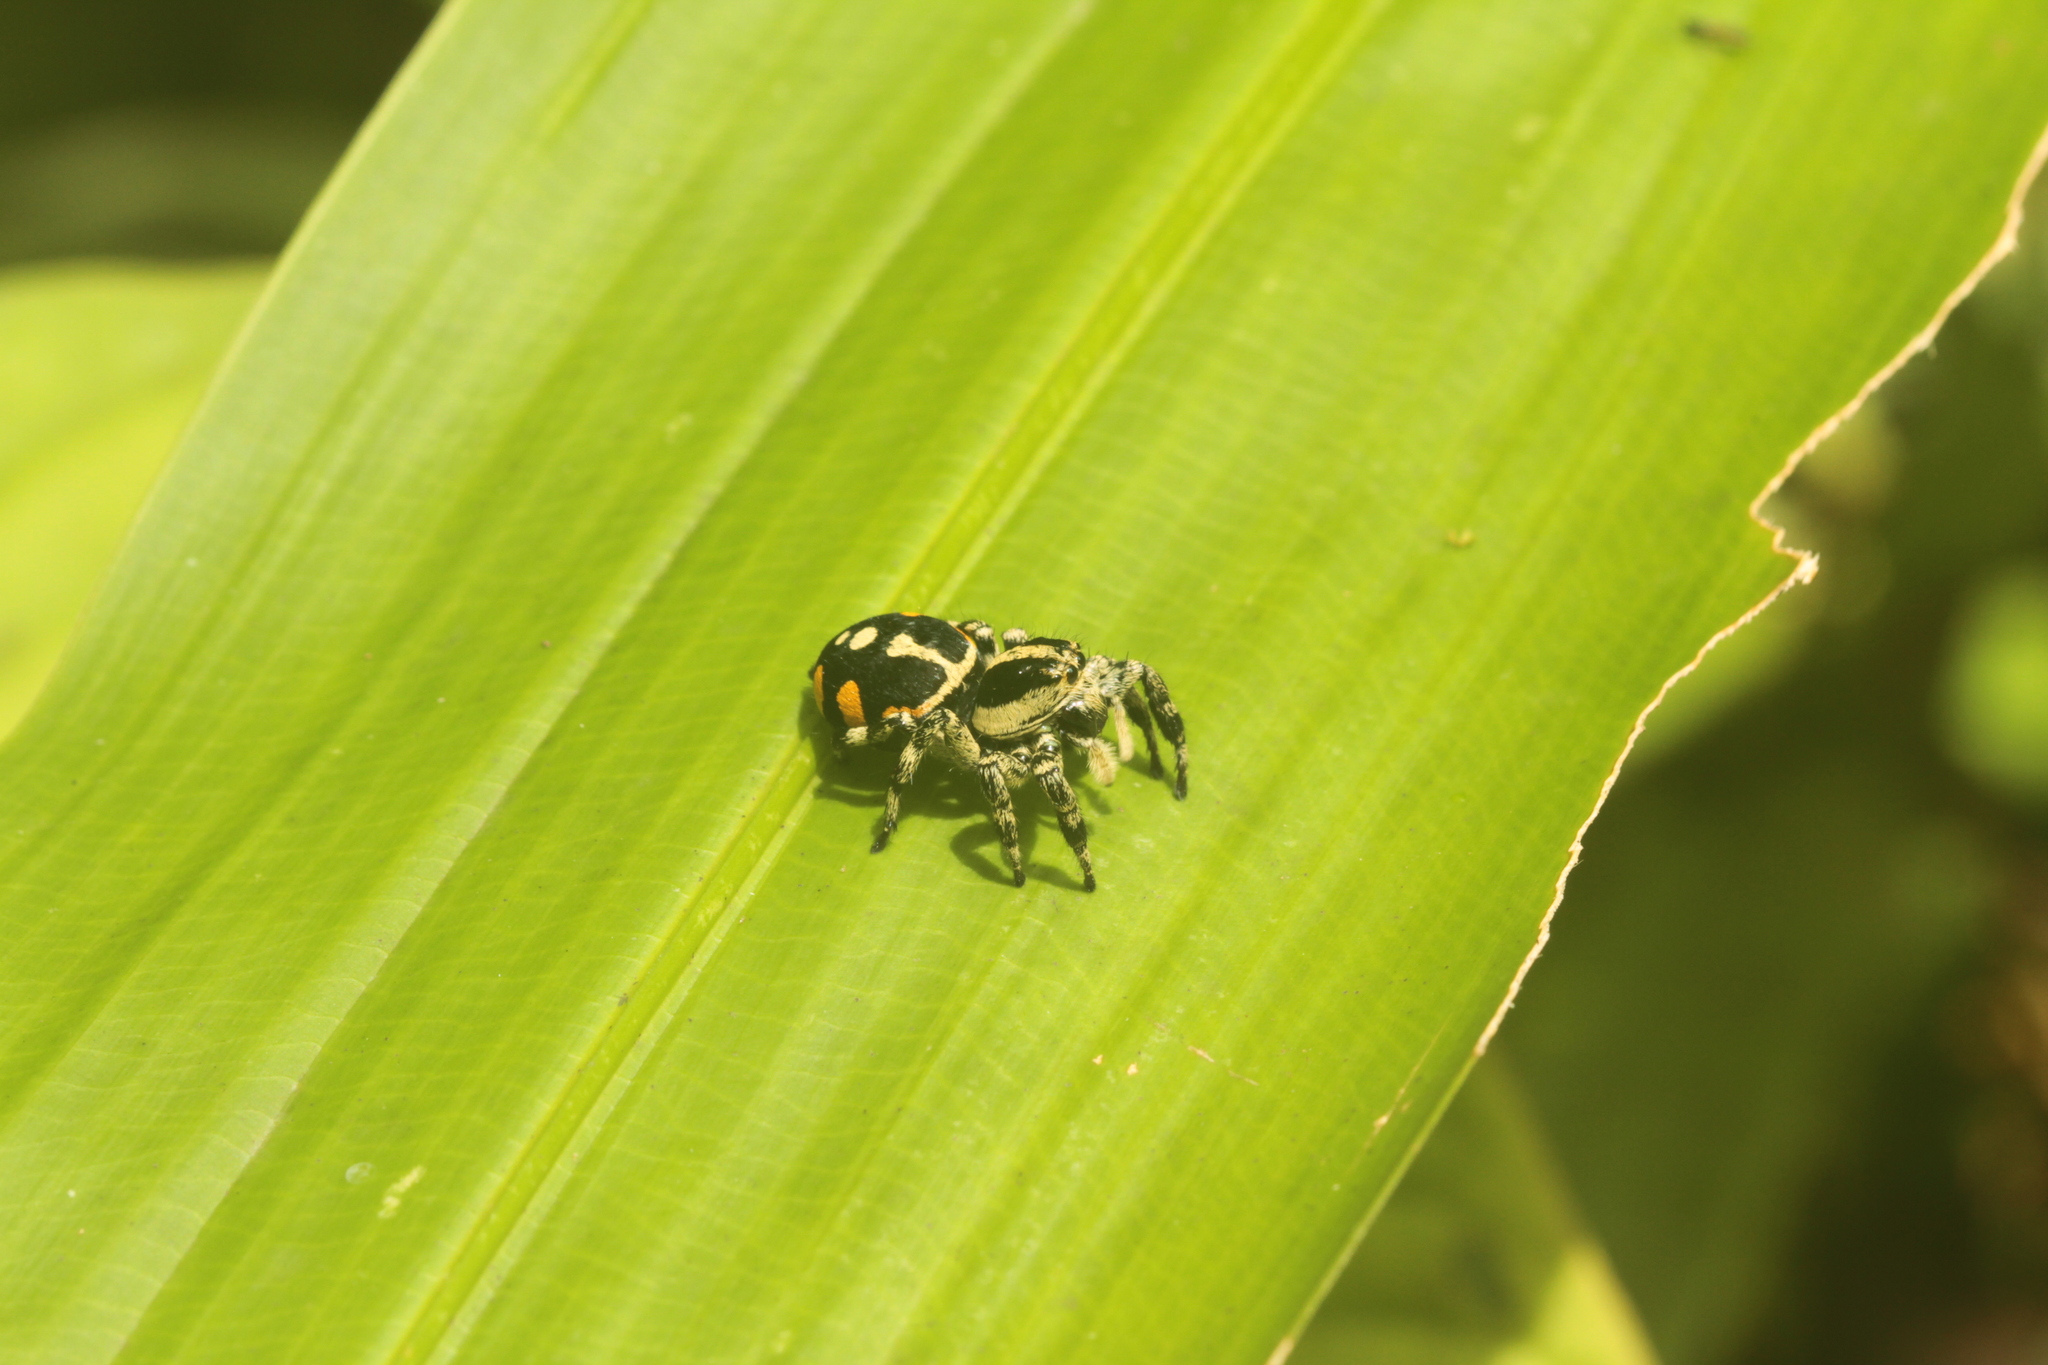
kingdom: Animalia
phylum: Arthropoda
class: Arachnida
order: Araneae
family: Salticidae
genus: Phiale
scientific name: Phiale guttata
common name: Jumping spiders
